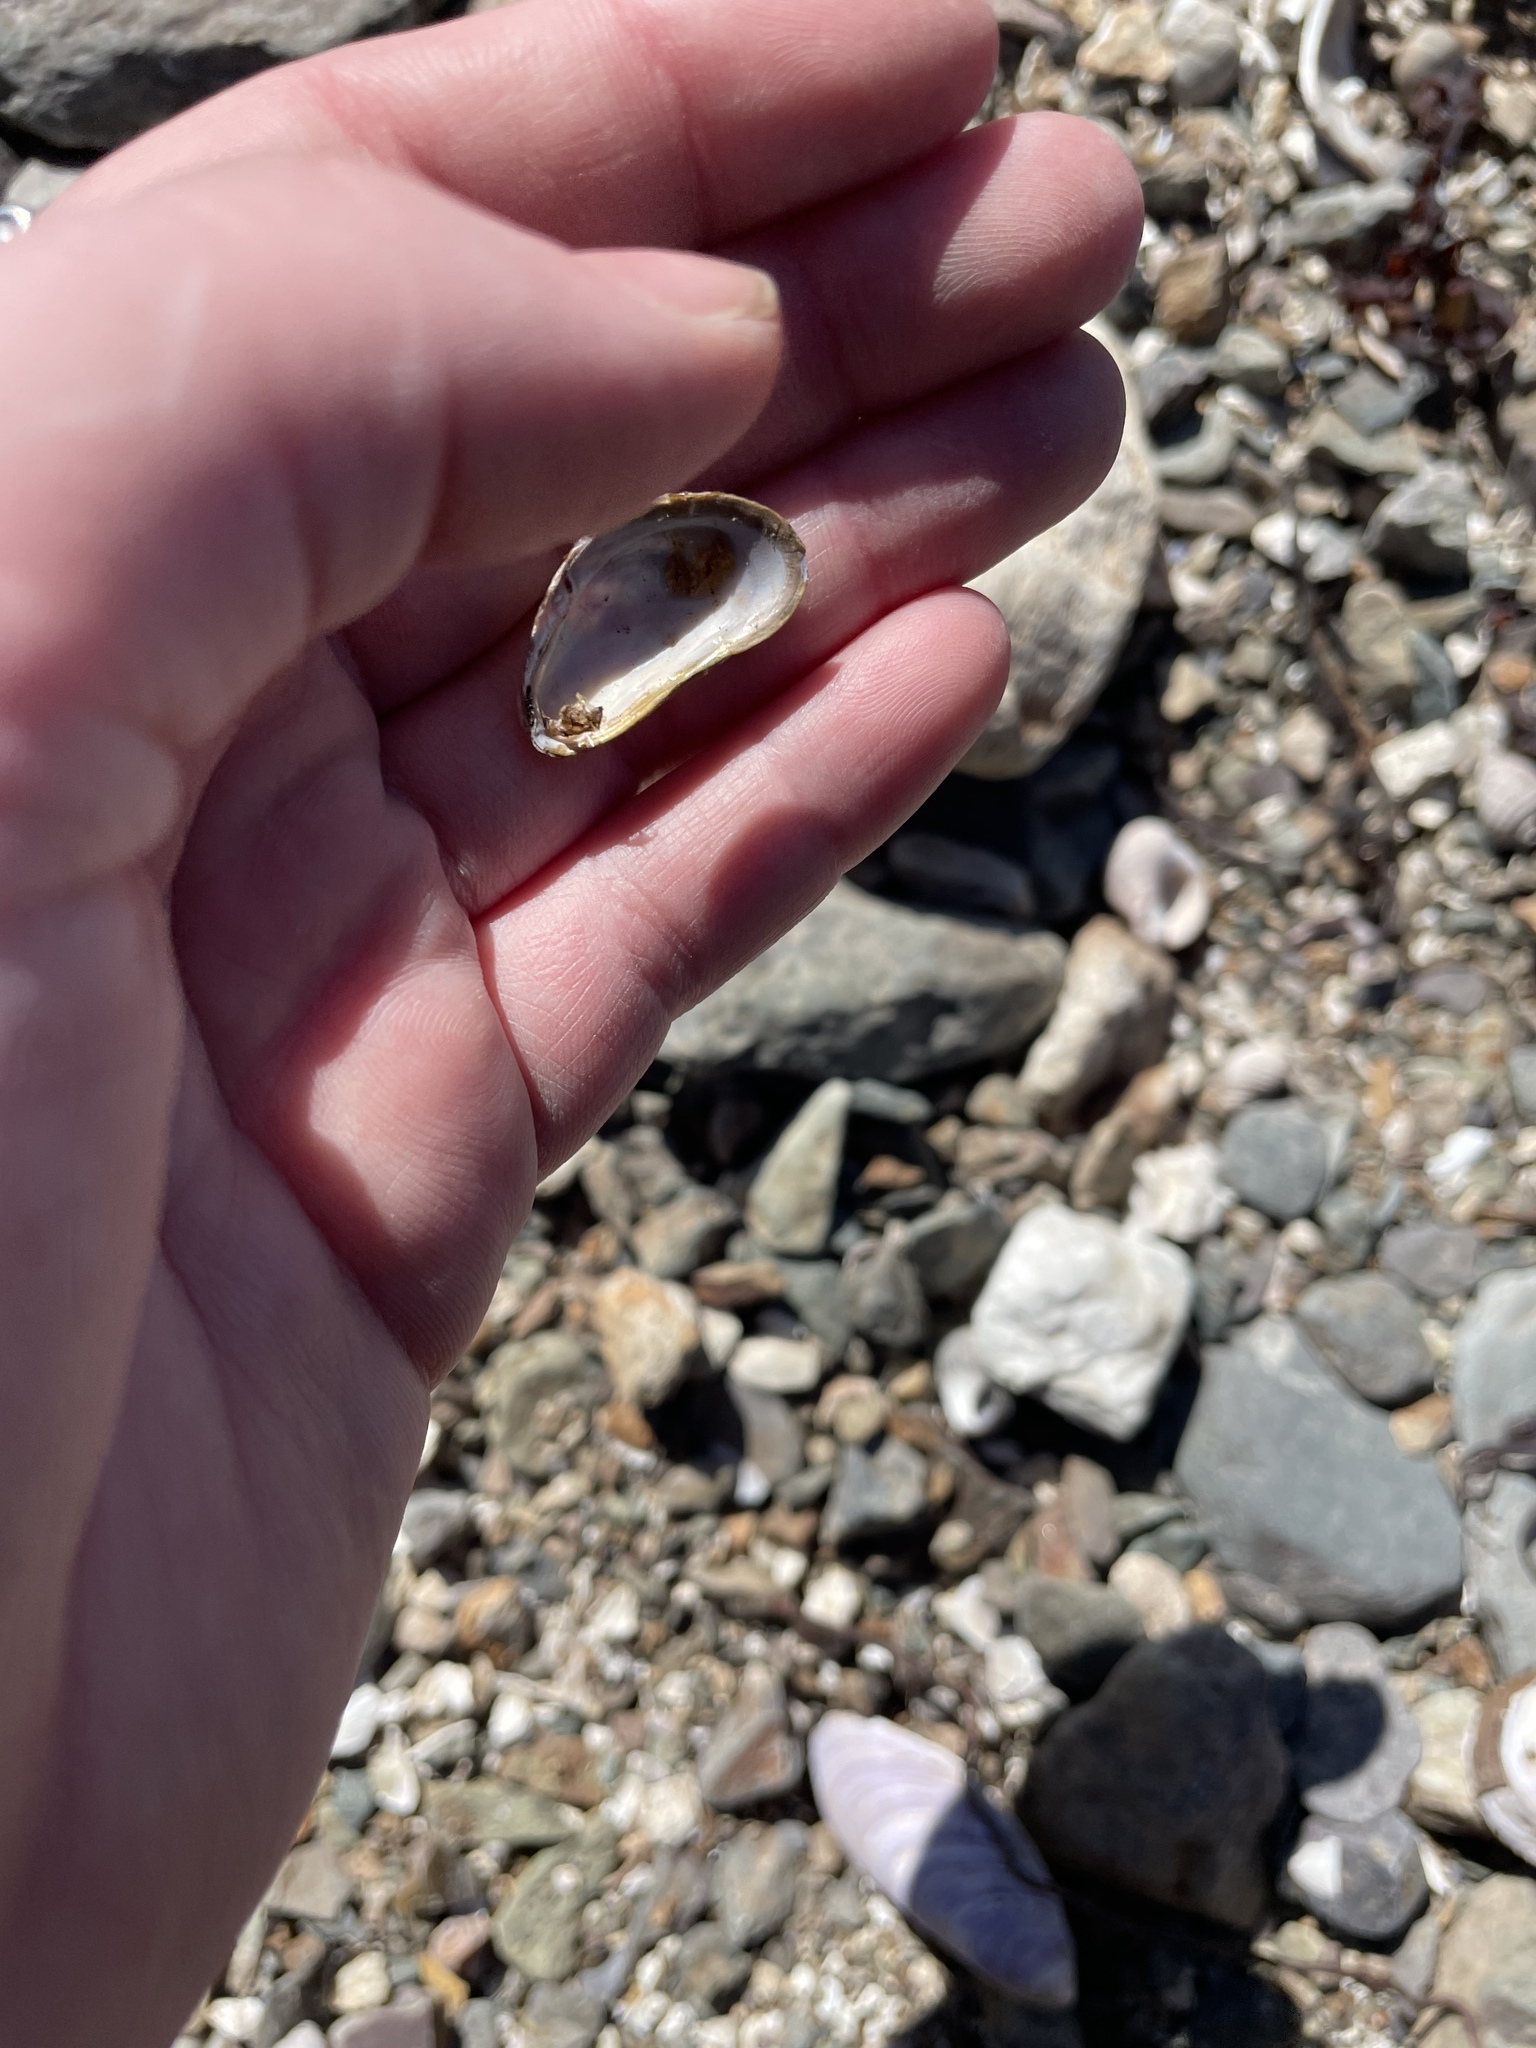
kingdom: Animalia
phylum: Mollusca
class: Bivalvia
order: Mytilida
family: Mytilidae
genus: Modiolus
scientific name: Modiolus modiolus
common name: Horse-mussel
